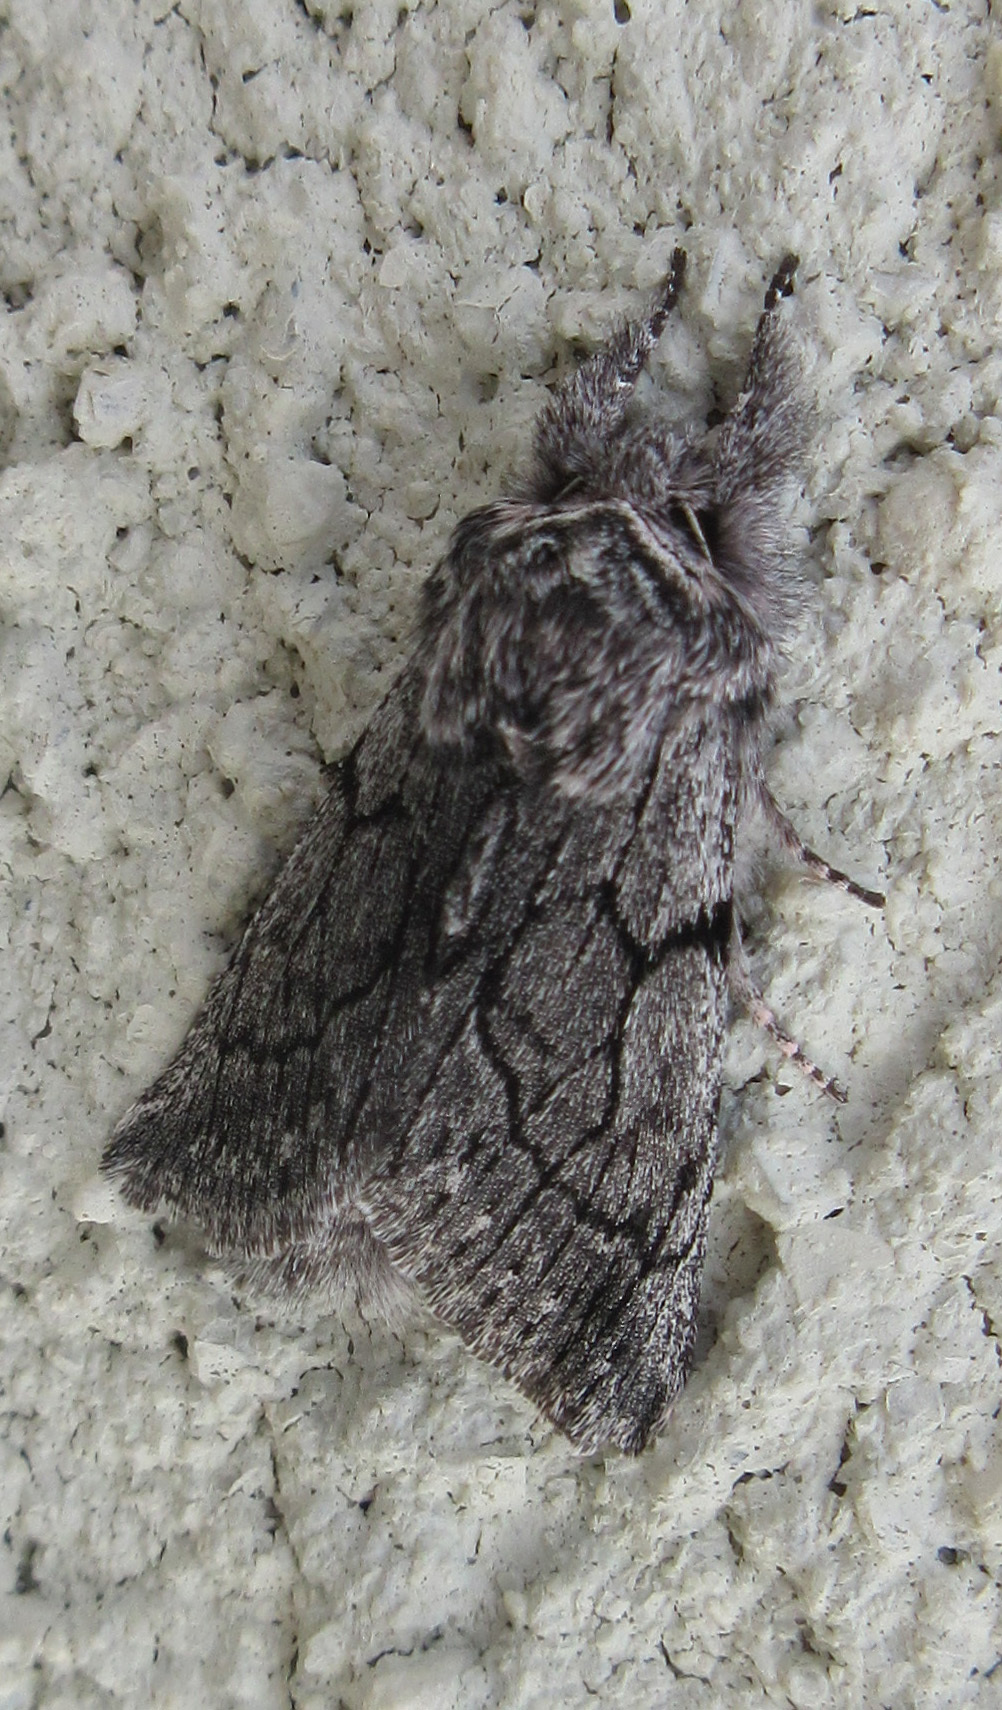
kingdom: Animalia
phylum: Arthropoda
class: Insecta
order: Lepidoptera
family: Noctuidae
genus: Pleromelloida
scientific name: Pleromelloida conserta
